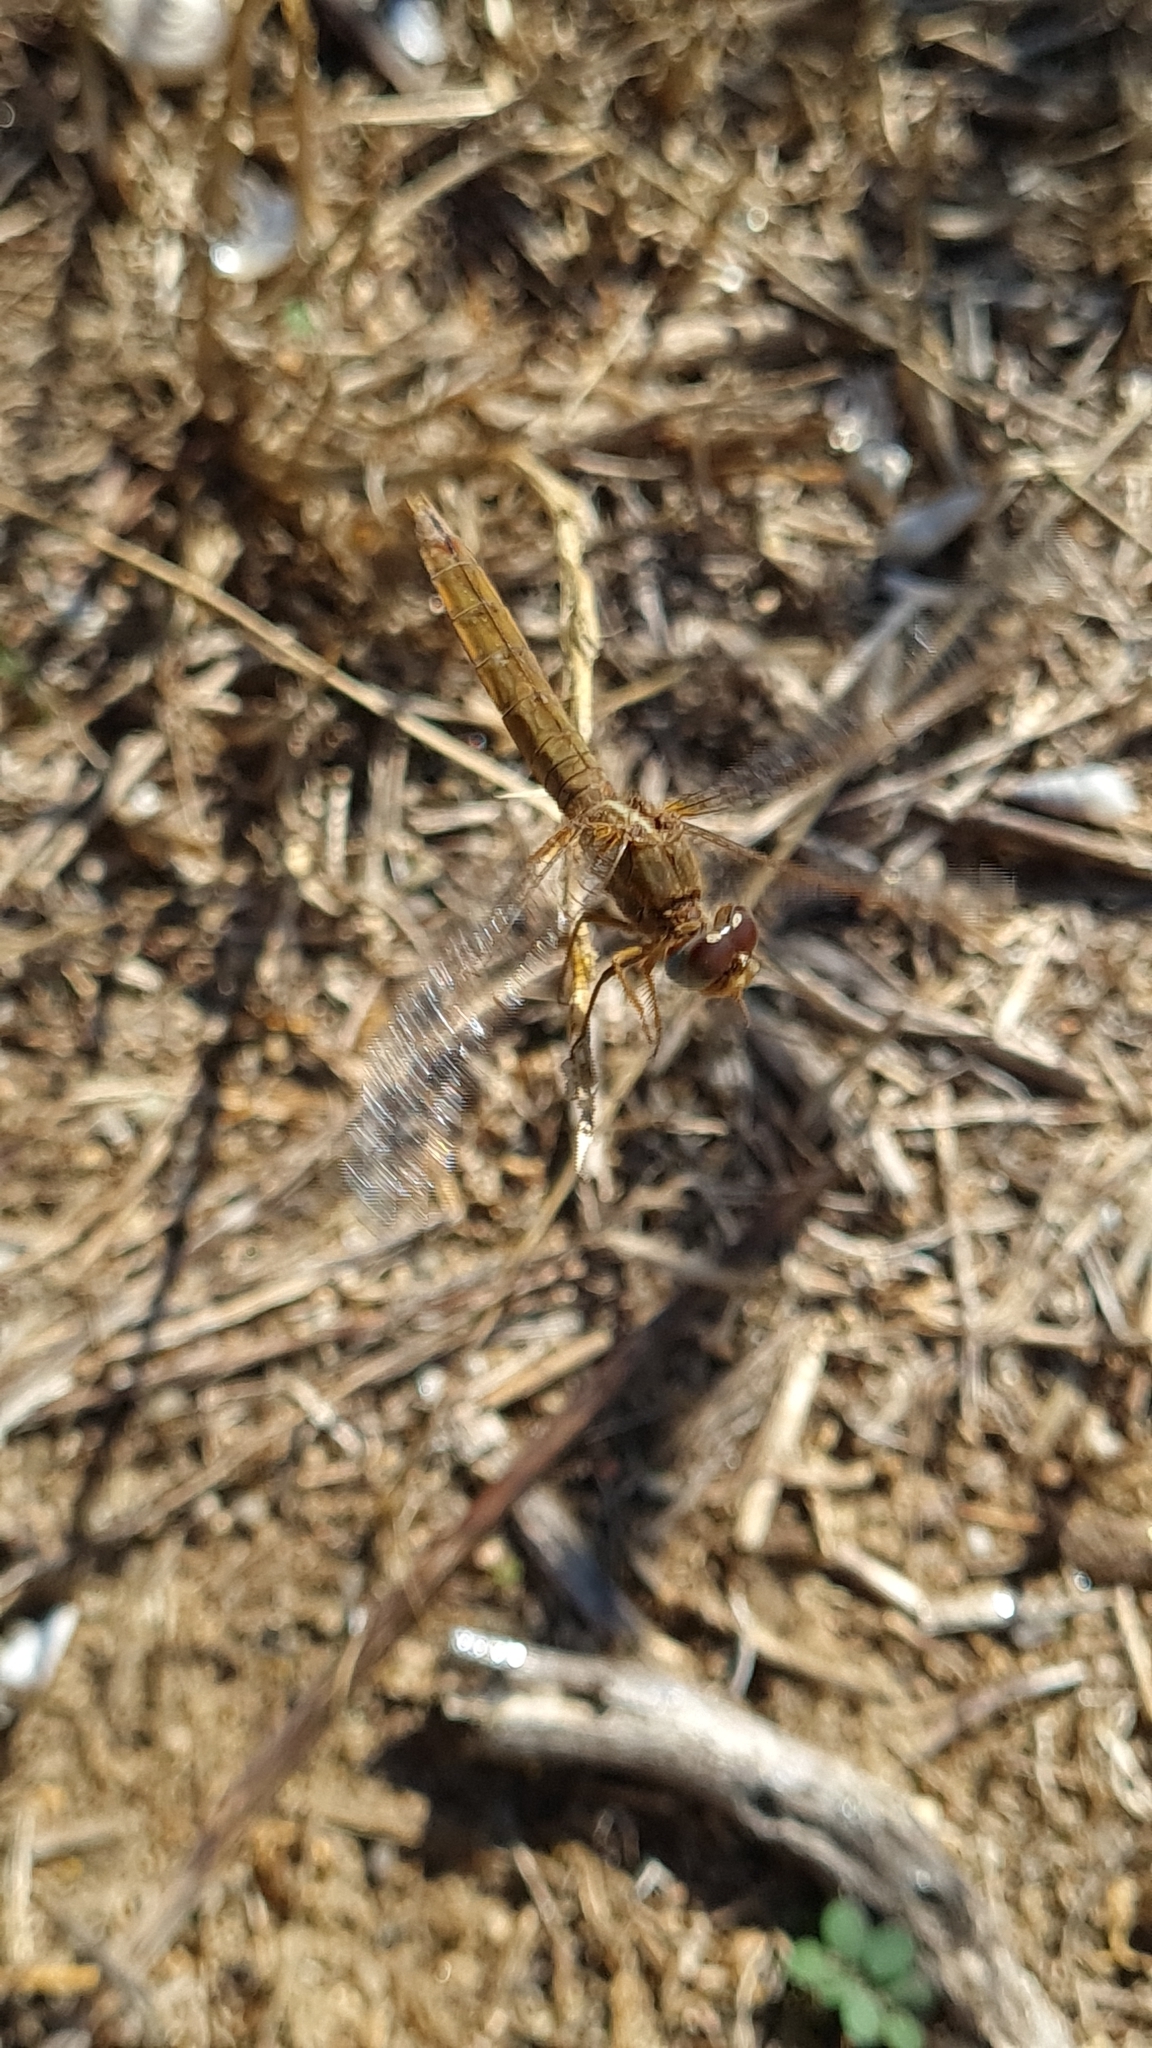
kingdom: Animalia
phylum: Arthropoda
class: Insecta
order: Odonata
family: Libellulidae
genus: Crocothemis
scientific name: Crocothemis erythraea
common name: Scarlet dragonfly
